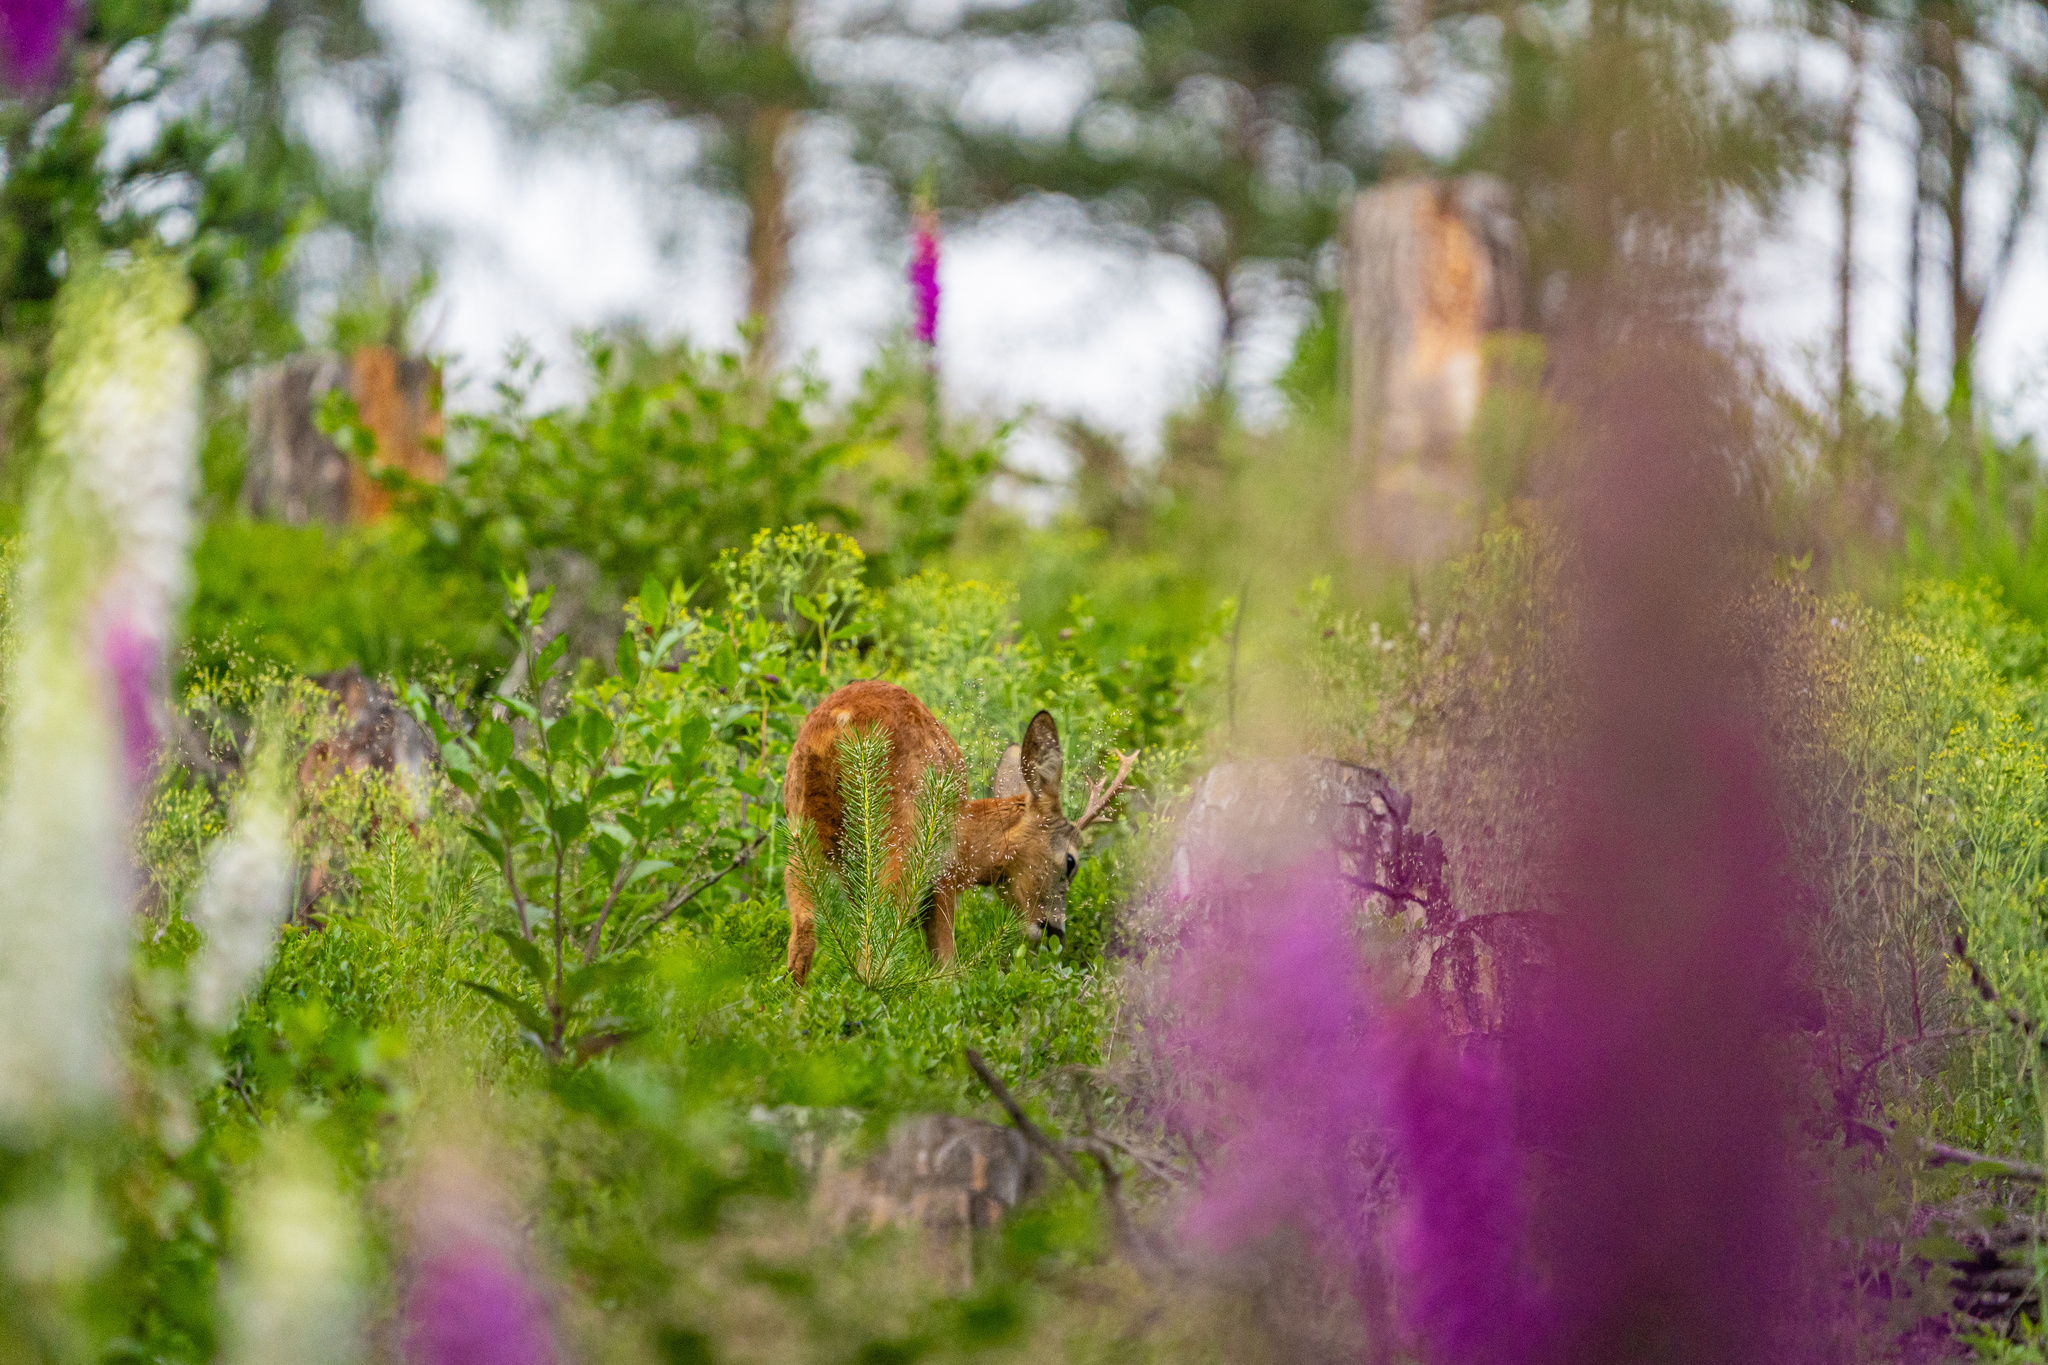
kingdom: Animalia
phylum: Chordata
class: Mammalia
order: Artiodactyla
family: Cervidae
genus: Capreolus
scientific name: Capreolus capreolus
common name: Western roe deer
